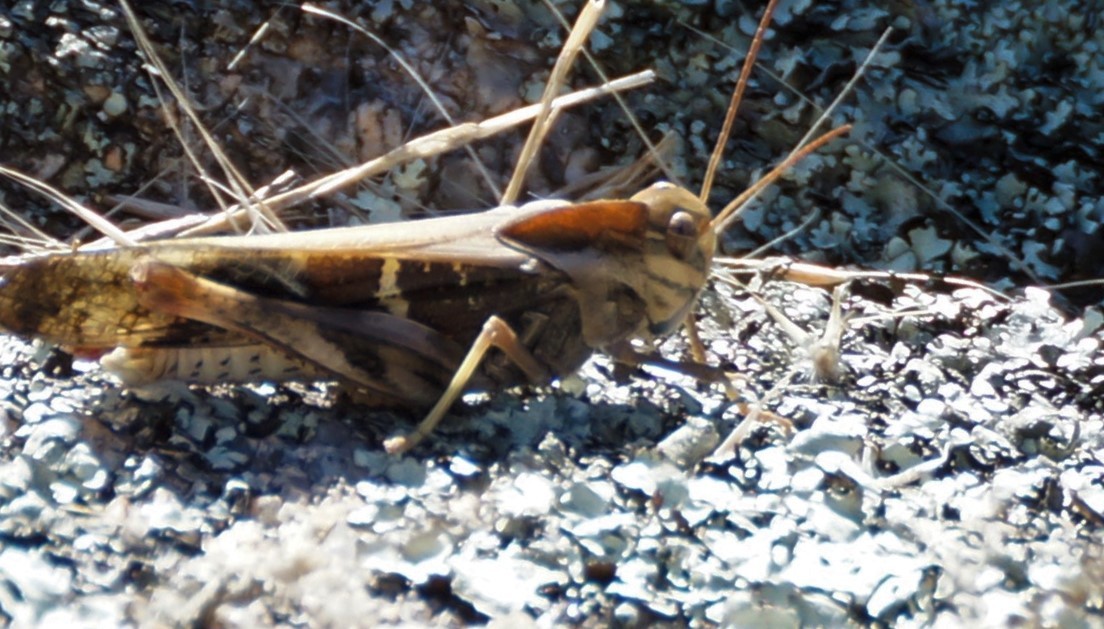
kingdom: Animalia
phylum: Arthropoda
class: Insecta
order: Orthoptera
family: Acrididae
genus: Gastrimargus
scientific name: Gastrimargus musicus
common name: Yellow-winged locust
